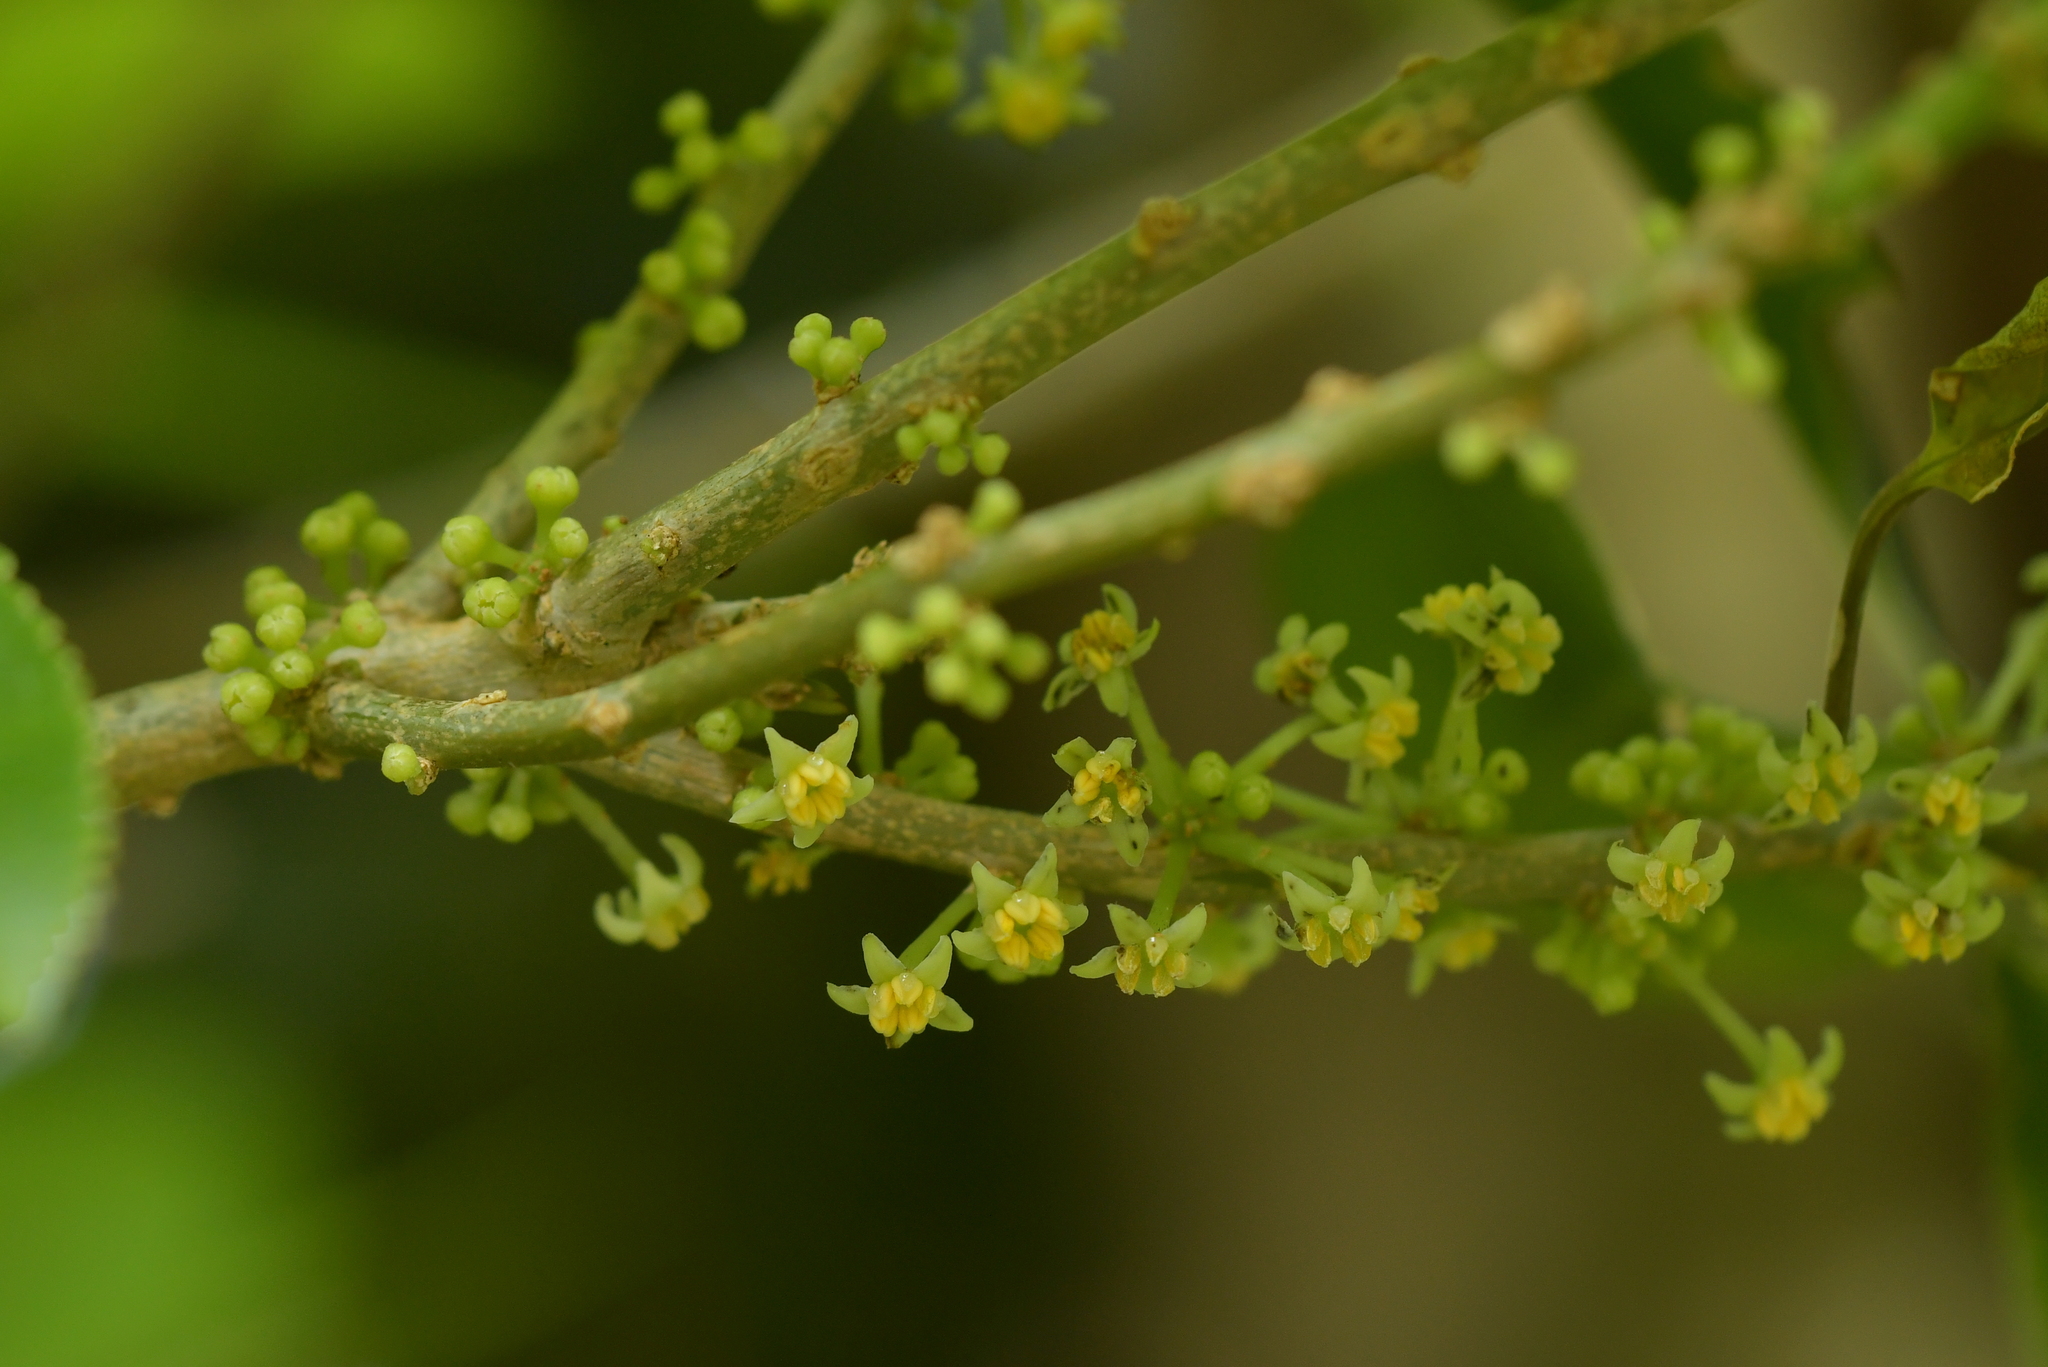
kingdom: Plantae
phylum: Tracheophyta
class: Magnoliopsida
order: Malpighiales
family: Violaceae
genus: Melicytus
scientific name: Melicytus ramiflorus
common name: Mahoe
